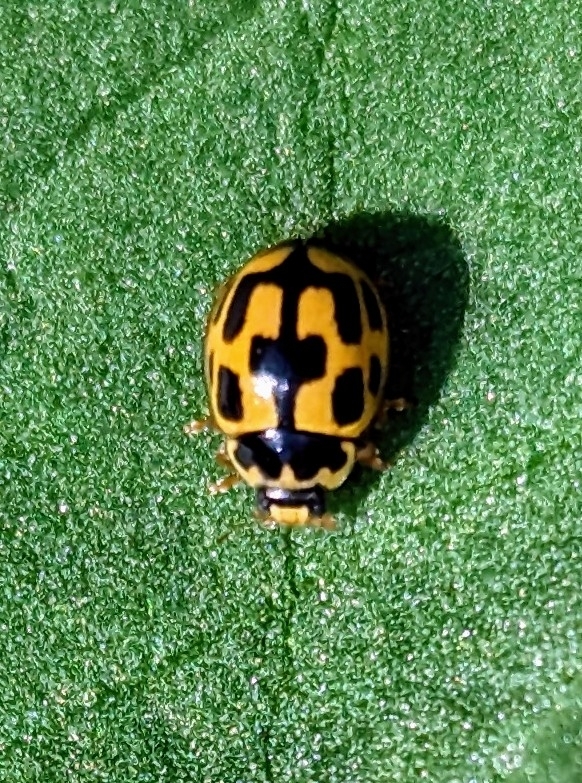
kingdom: Animalia
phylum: Arthropoda
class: Insecta
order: Coleoptera
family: Coccinellidae
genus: Propylaea
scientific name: Propylaea quatuordecimpunctata
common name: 14-spotted ladybird beetle
